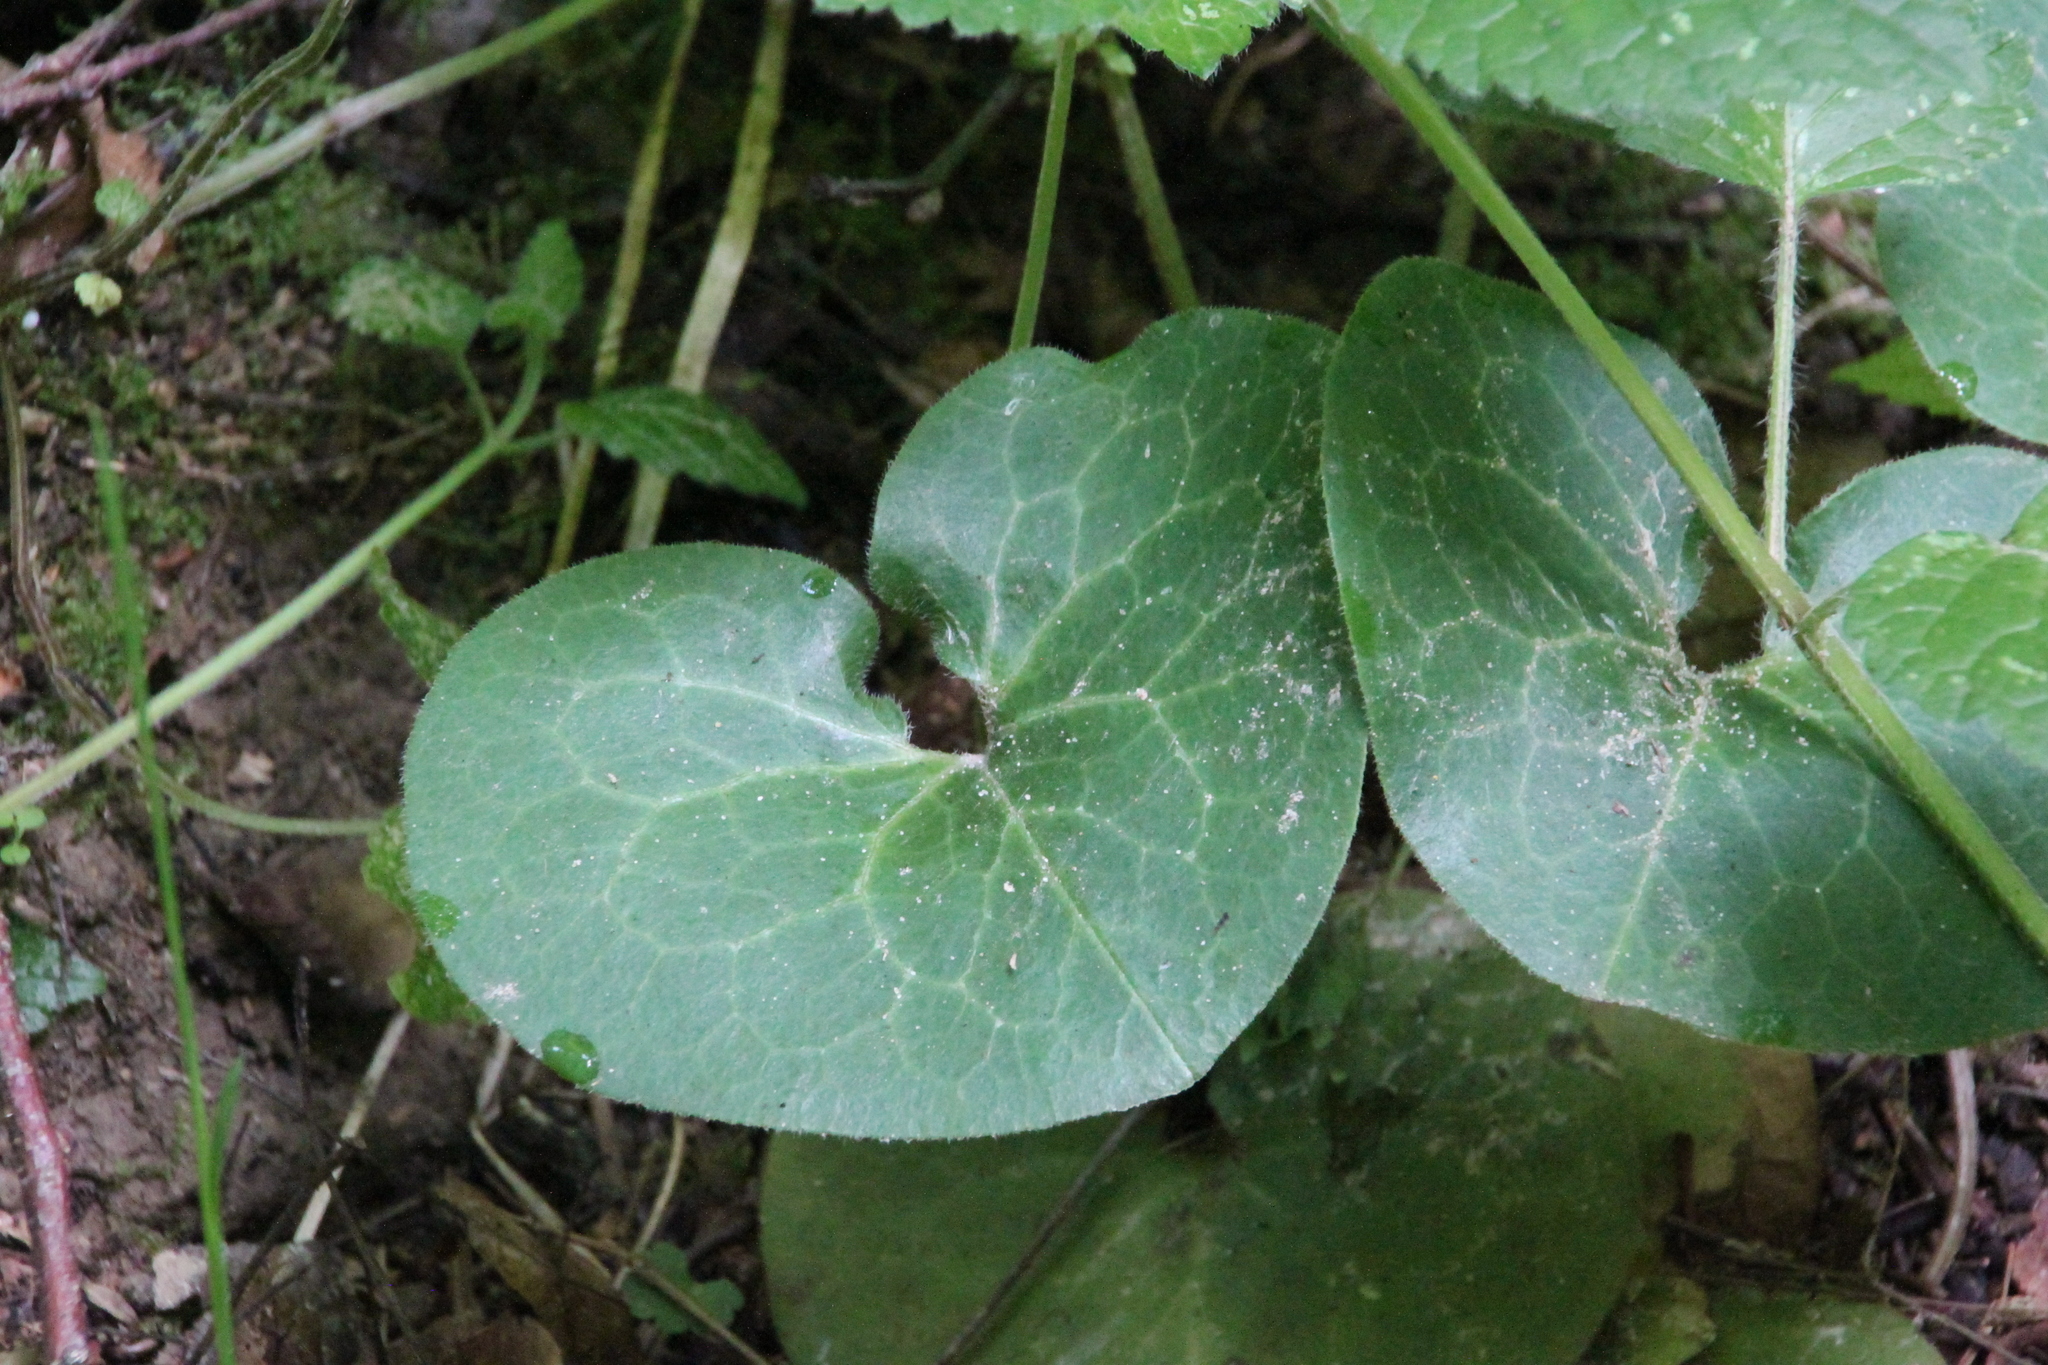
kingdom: Plantae
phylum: Tracheophyta
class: Magnoliopsida
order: Piperales
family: Aristolochiaceae
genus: Asarum
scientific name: Asarum europaeum
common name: Asarabacca
